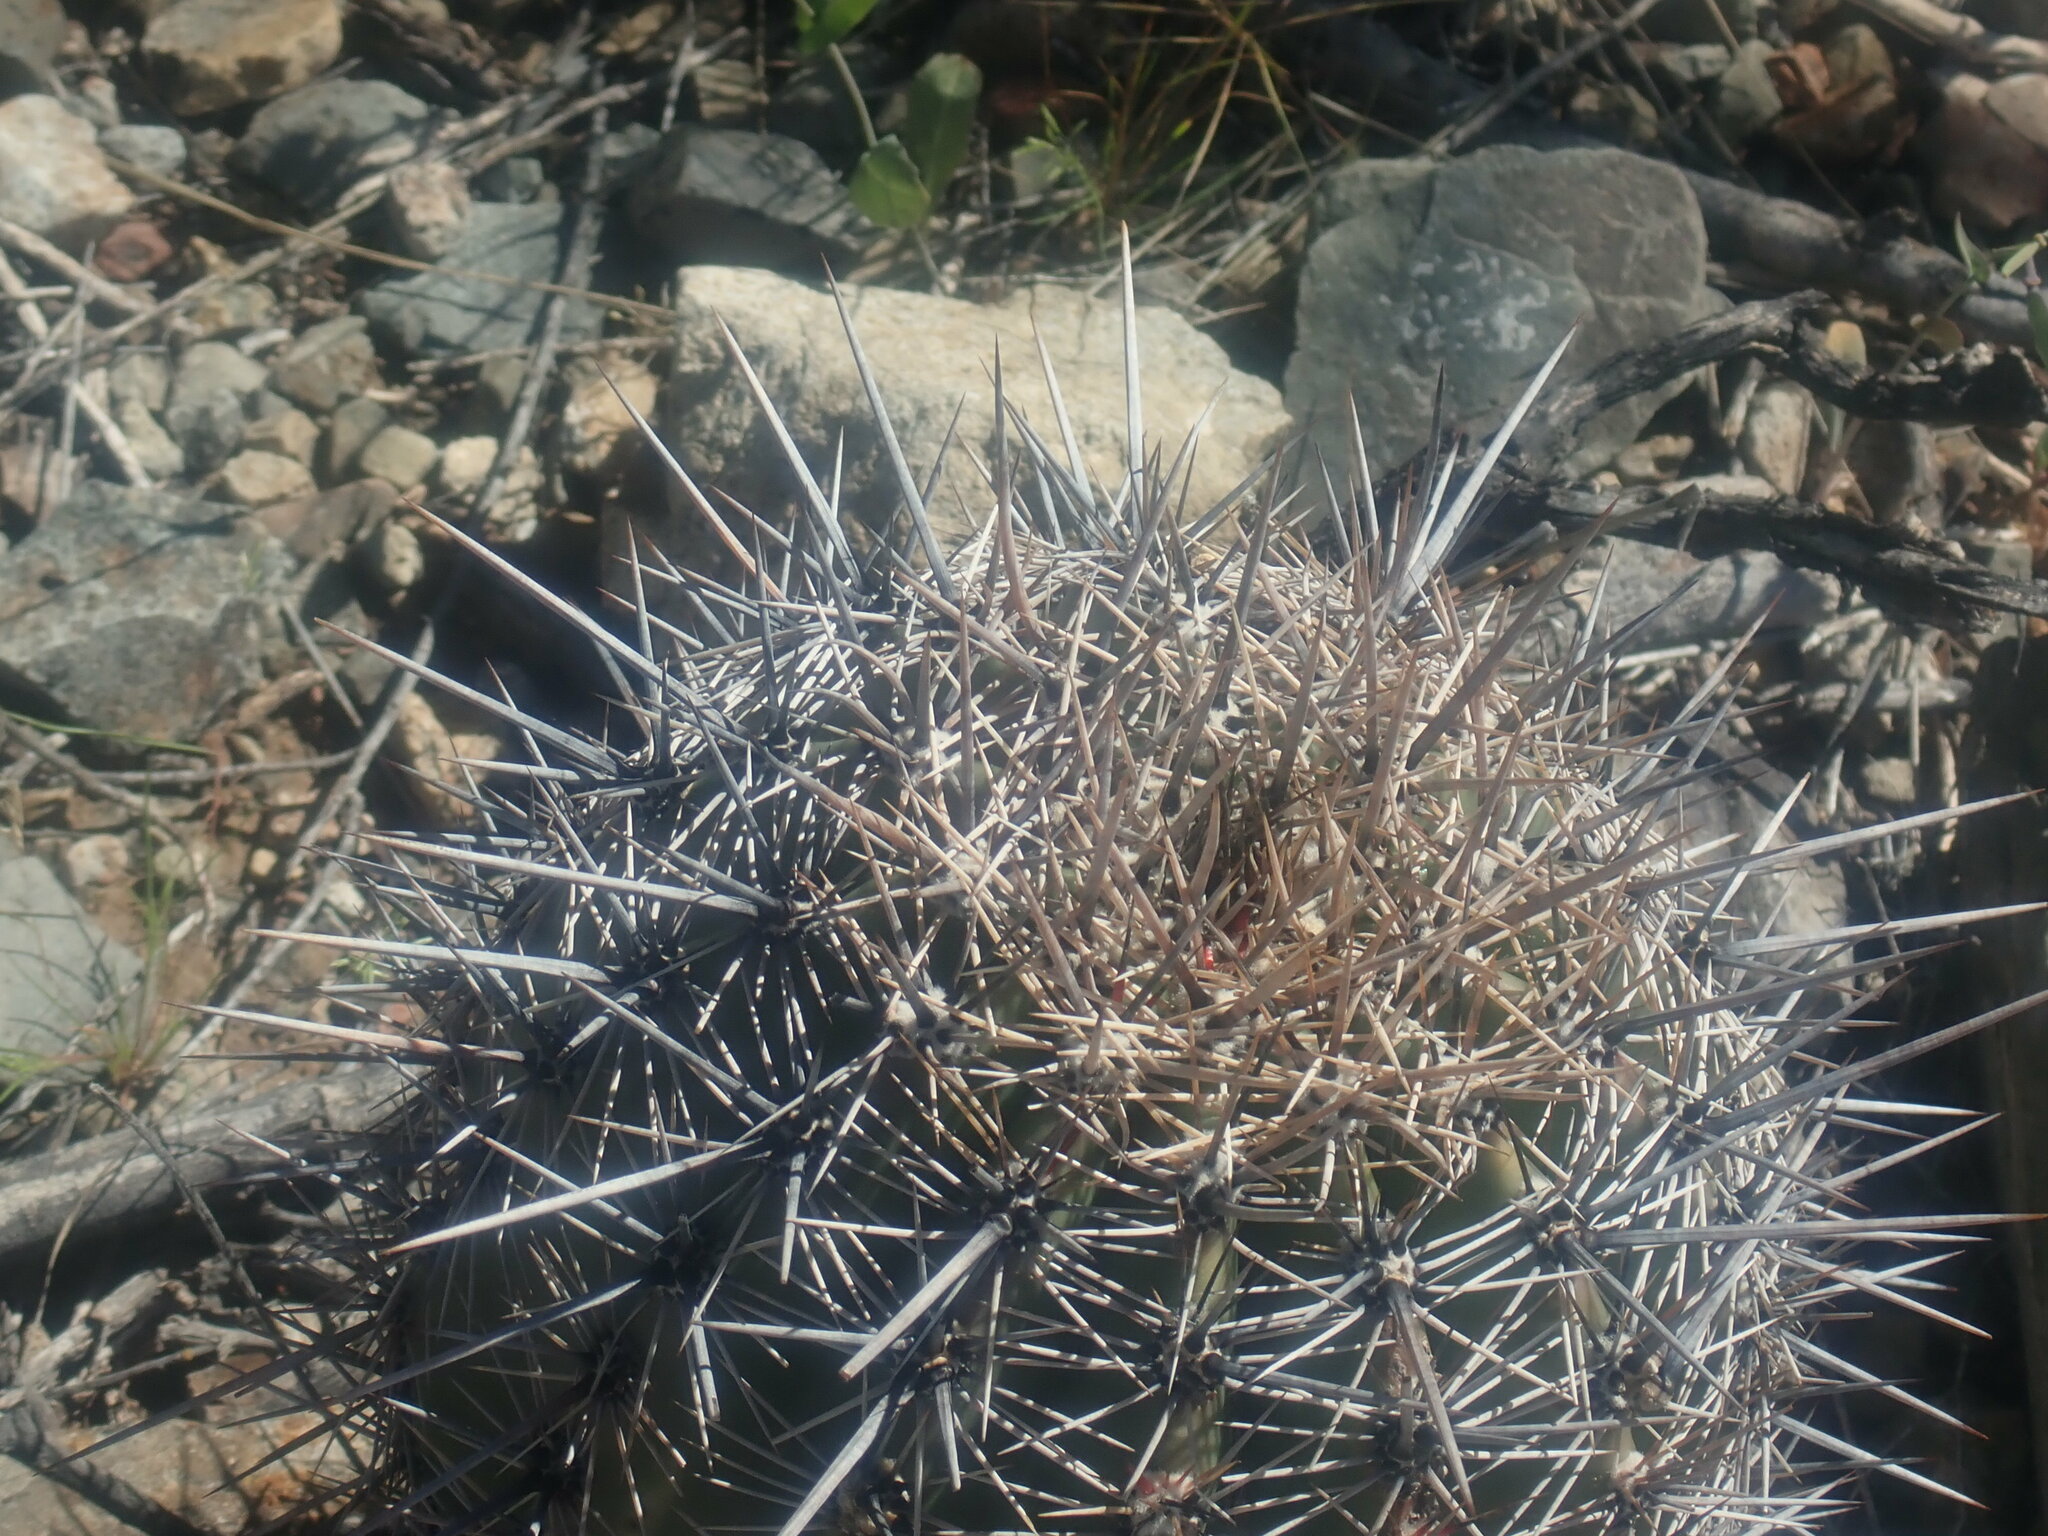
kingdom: Plantae
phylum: Tracheophyta
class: Magnoliopsida
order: Caryophyllales
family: Cactaceae
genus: Carnegiea
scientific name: Carnegiea gigantea
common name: Saguaro
